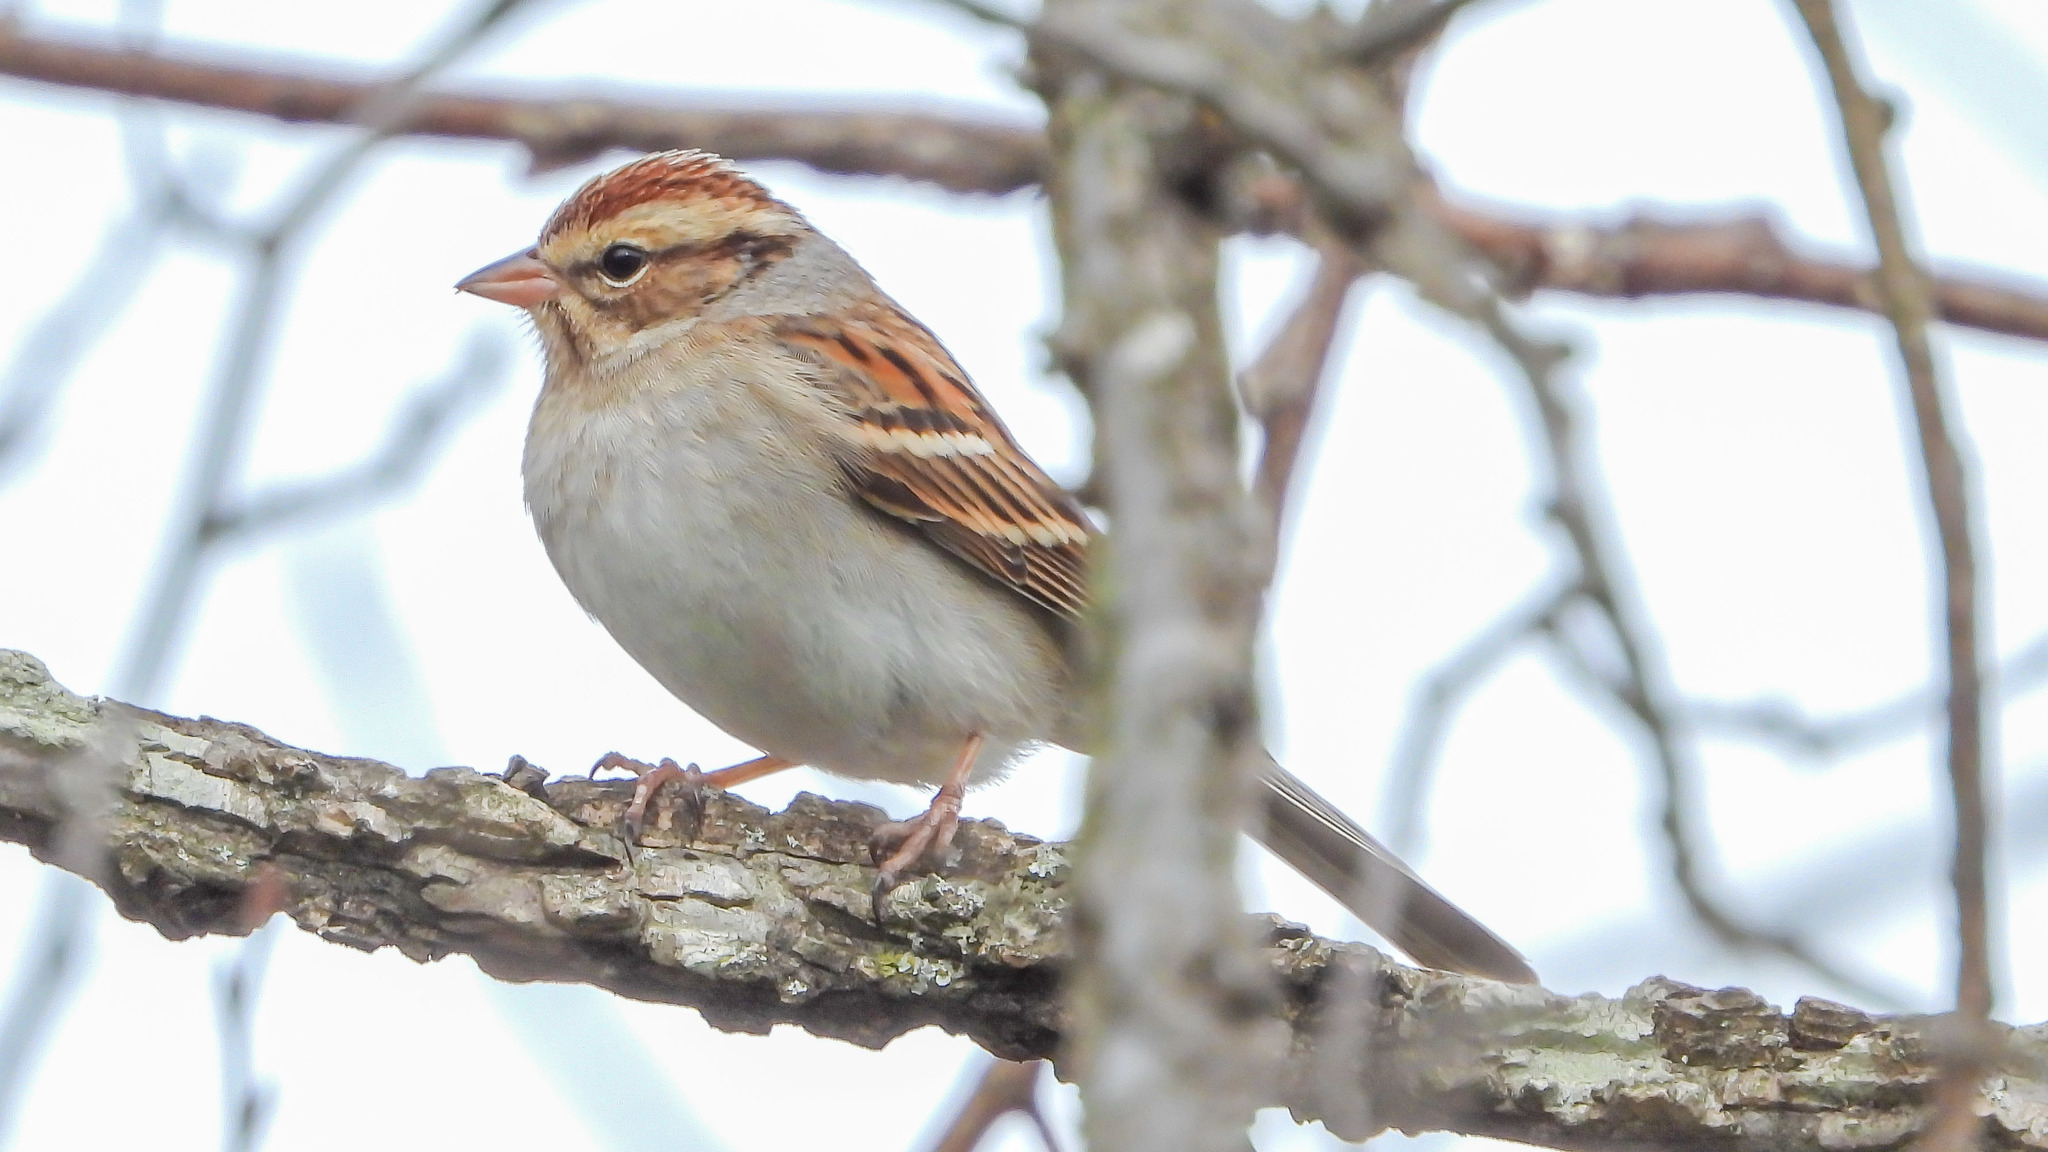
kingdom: Animalia
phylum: Chordata
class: Aves
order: Passeriformes
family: Passerellidae
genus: Spizella
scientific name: Spizella passerina
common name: Chipping sparrow
